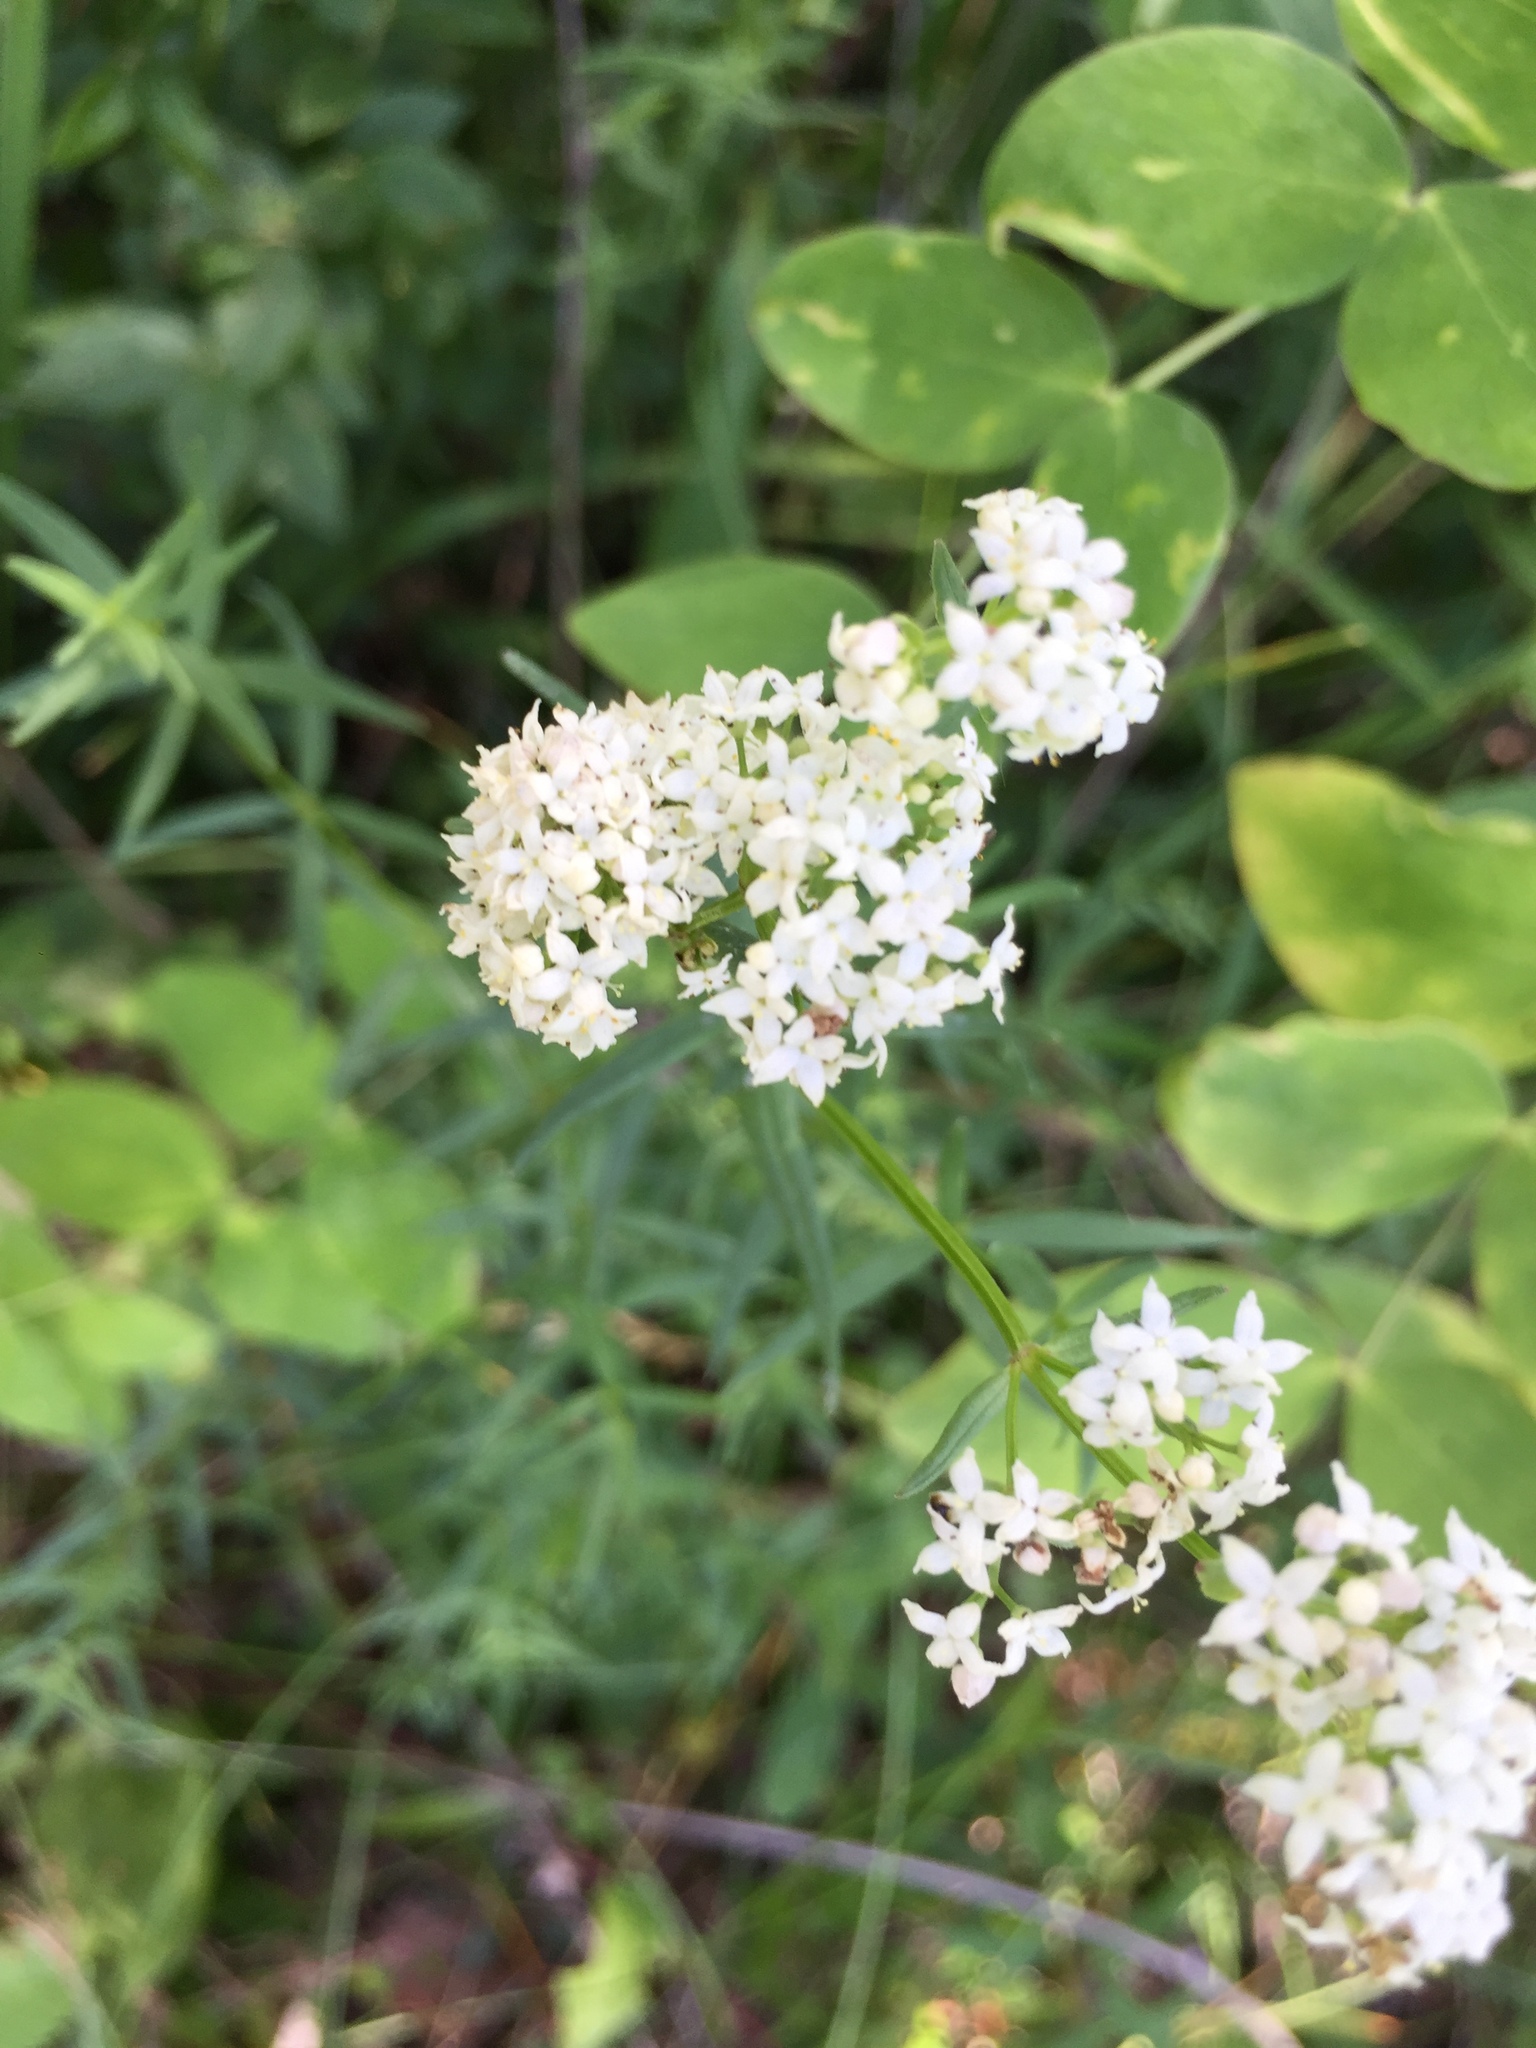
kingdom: Plantae
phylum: Tracheophyta
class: Magnoliopsida
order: Gentianales
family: Rubiaceae
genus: Galium
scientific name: Galium boreale
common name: Northern bedstraw
